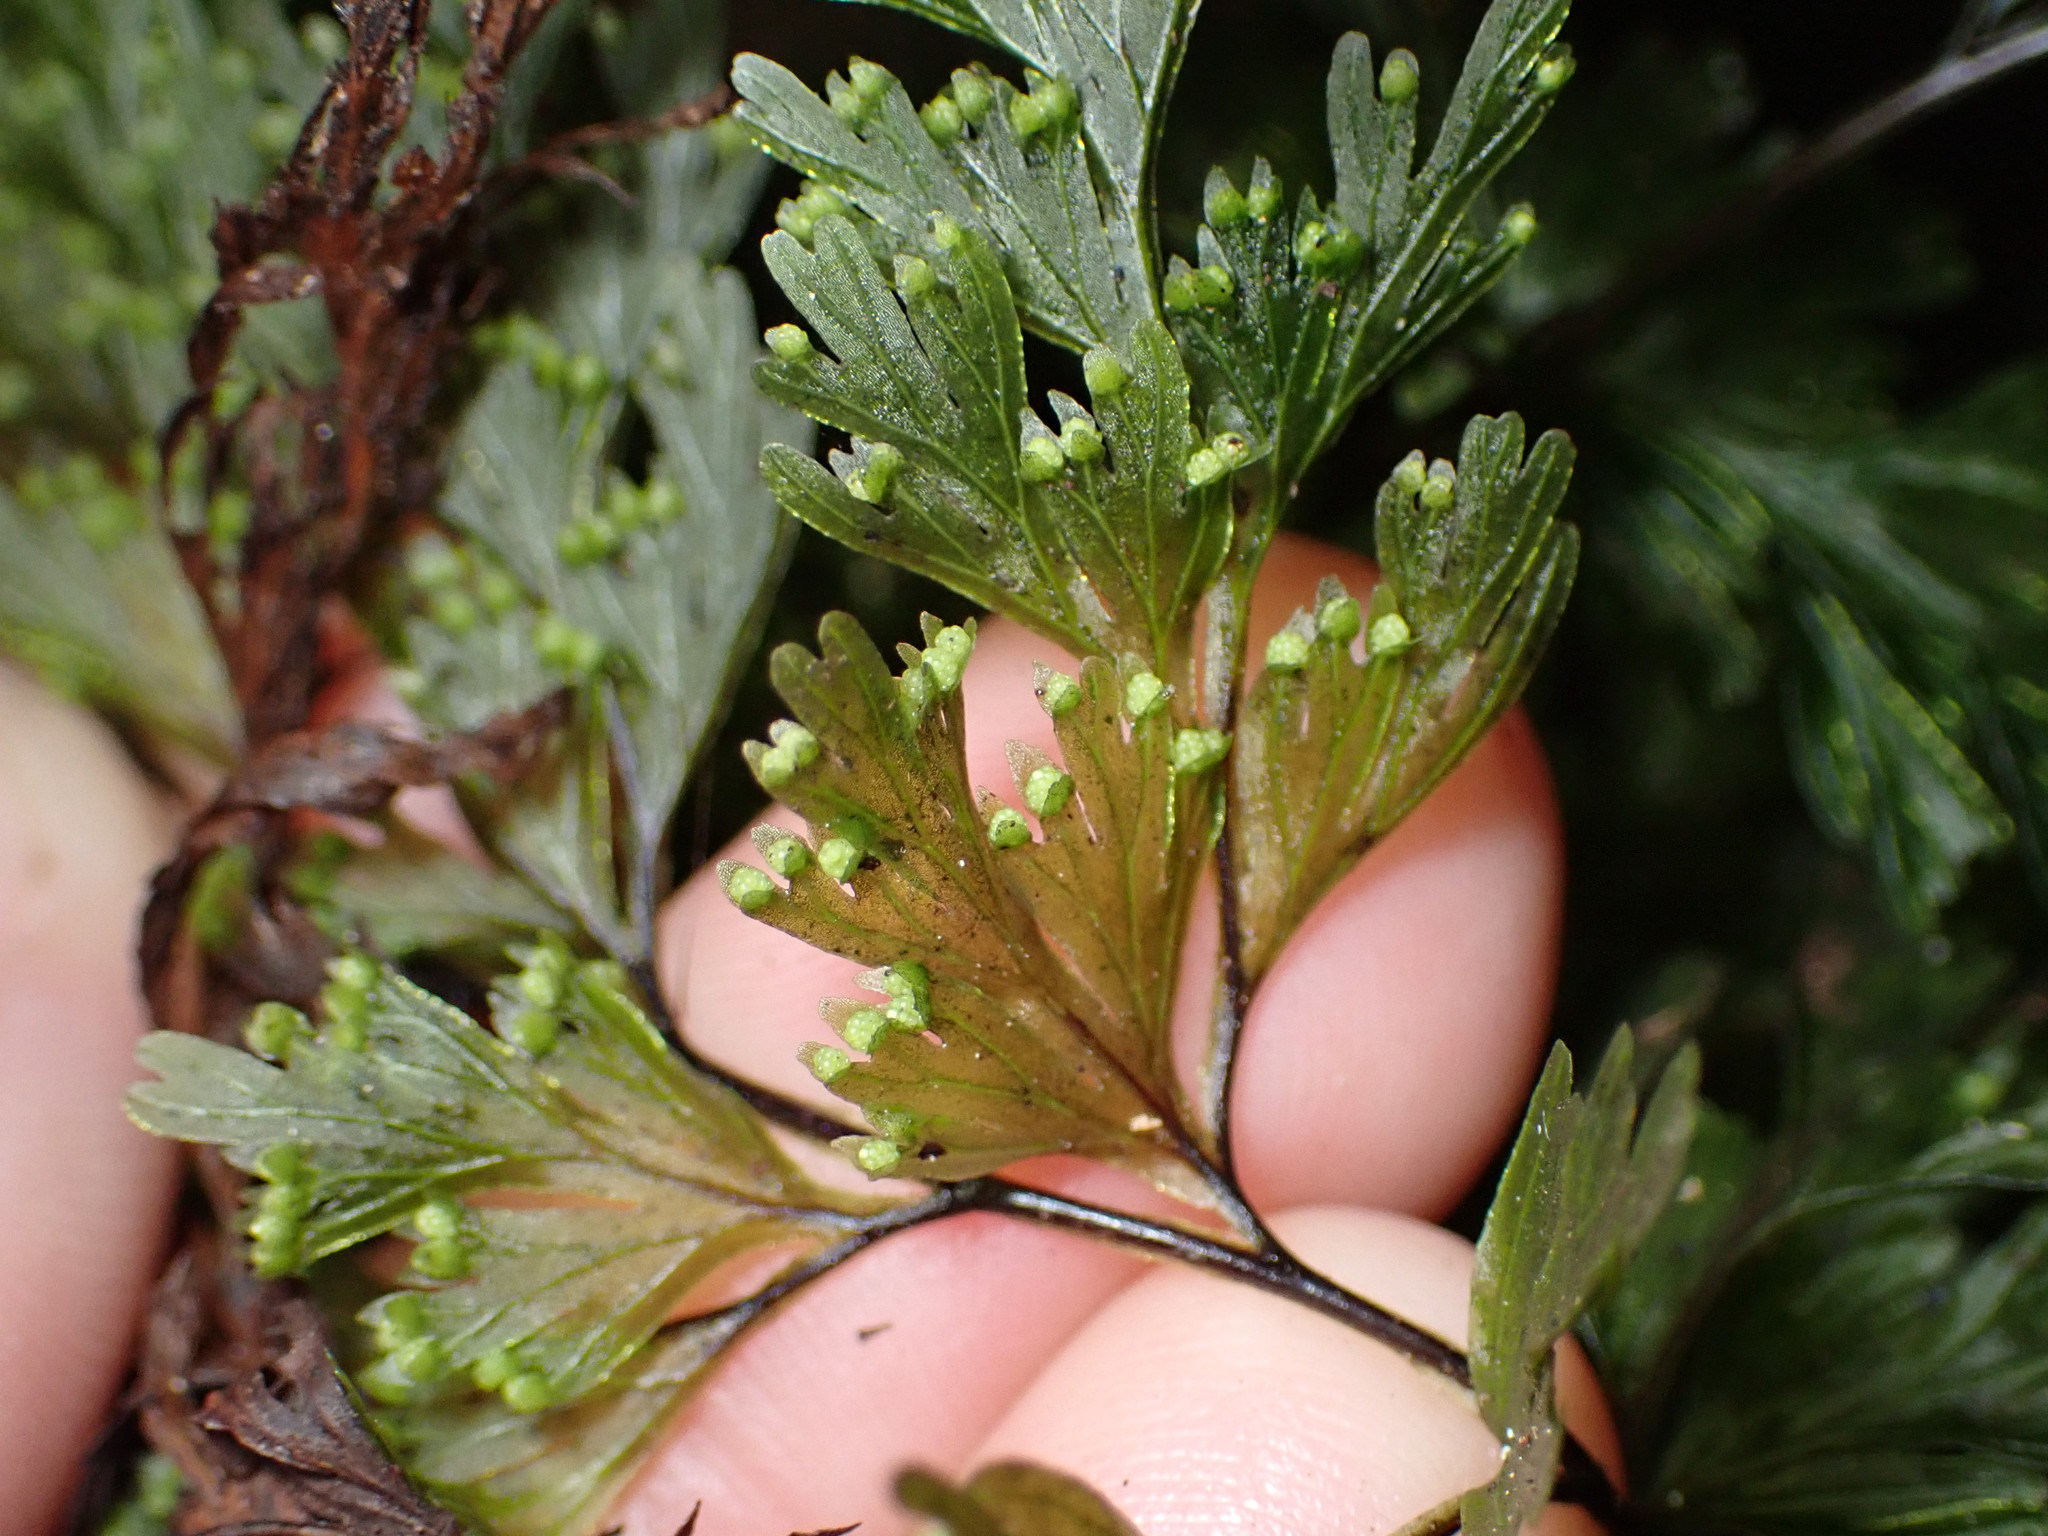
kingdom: Plantae
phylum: Tracheophyta
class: Polypodiopsida
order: Hymenophyllales
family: Hymenophyllaceae
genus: Hymenophyllum
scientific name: Hymenophyllum demissum
